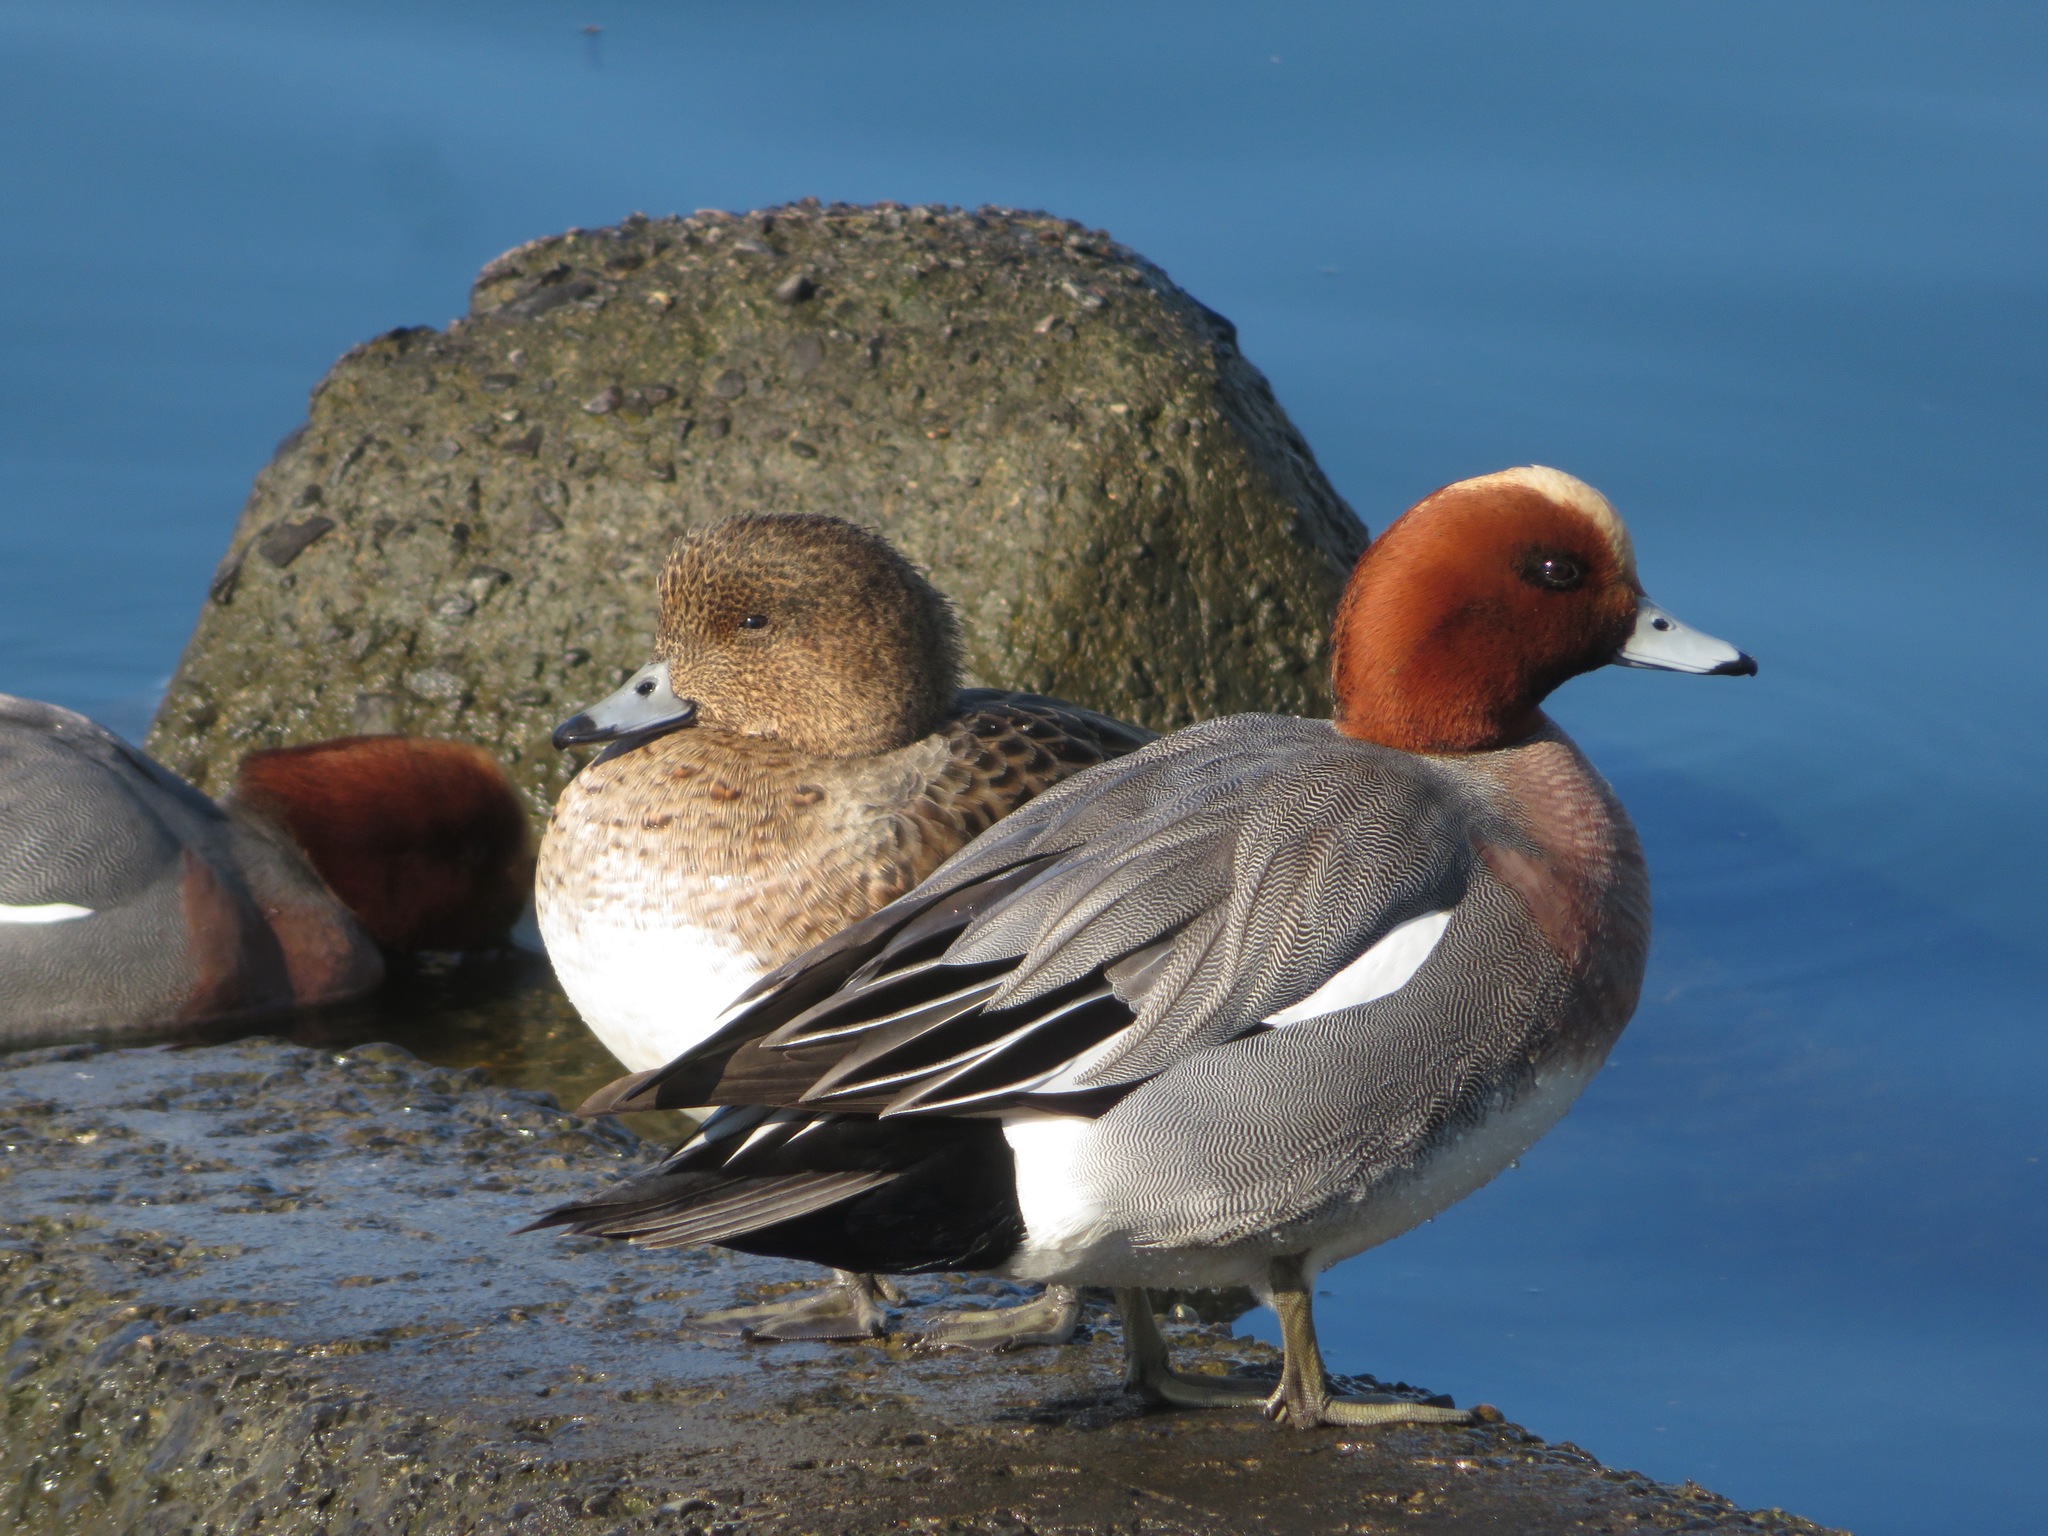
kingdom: Animalia
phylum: Chordata
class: Aves
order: Anseriformes
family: Anatidae
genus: Mareca
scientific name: Mareca penelope
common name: Eurasian wigeon
